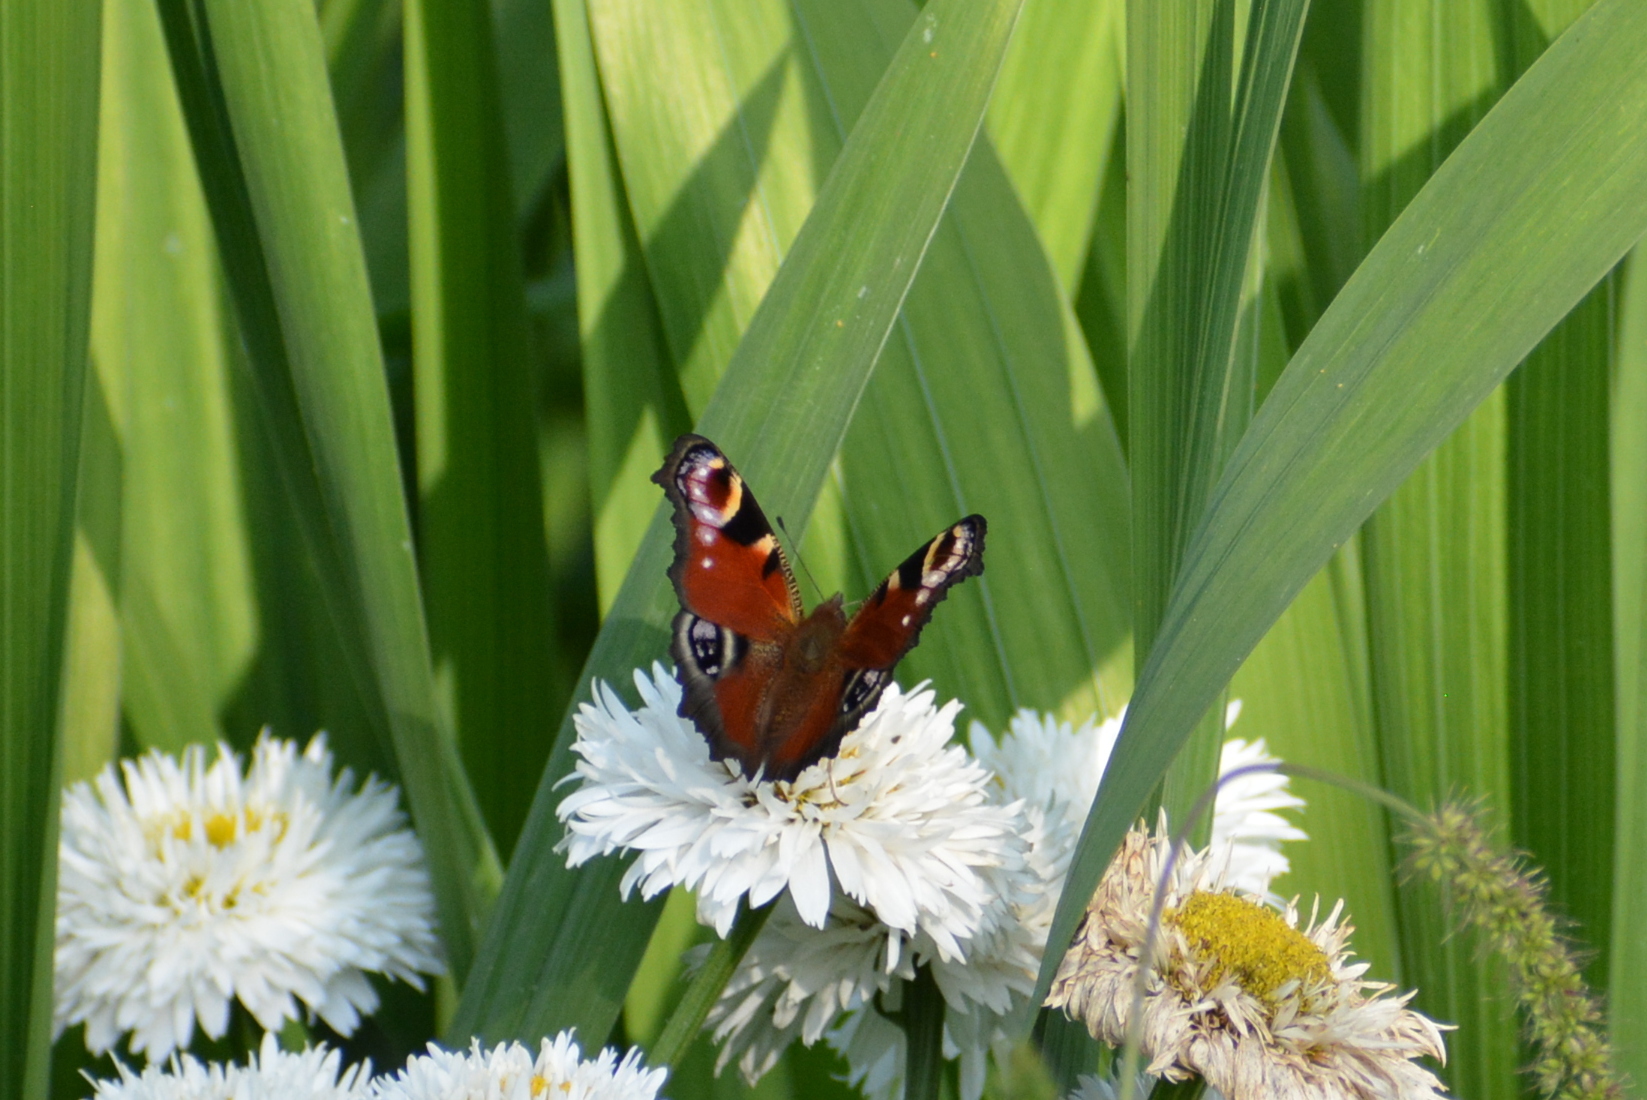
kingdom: Animalia
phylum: Arthropoda
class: Insecta
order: Lepidoptera
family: Nymphalidae
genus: Aglais
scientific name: Aglais io
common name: Peacock
